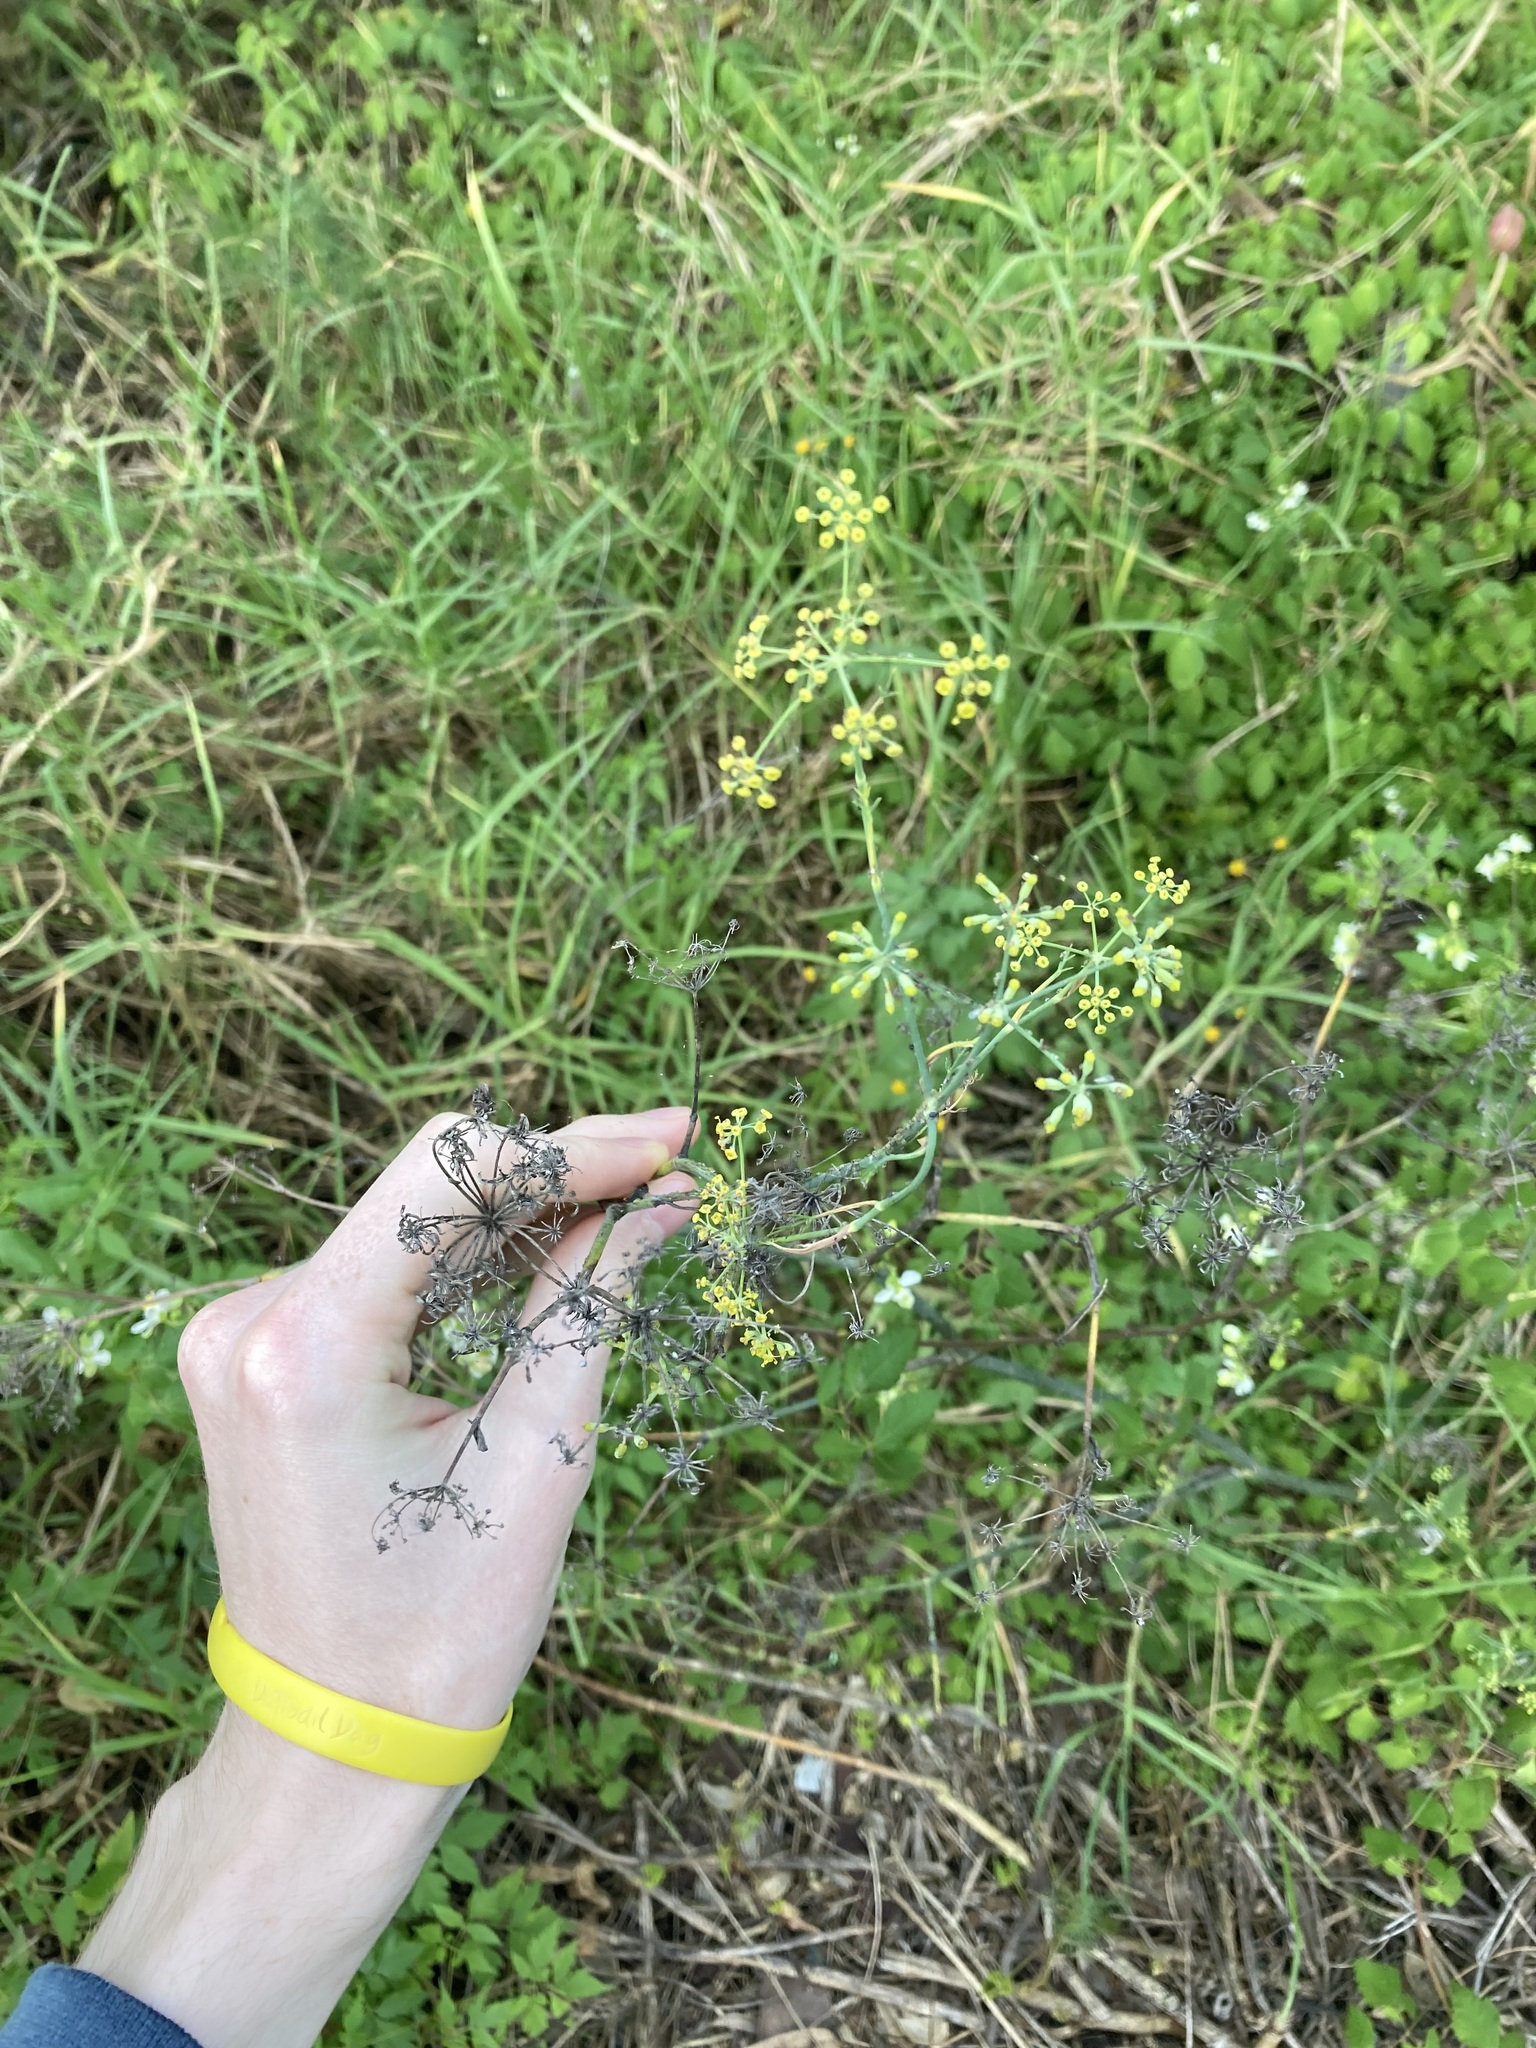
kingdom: Plantae
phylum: Tracheophyta
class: Magnoliopsida
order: Apiales
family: Apiaceae
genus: Foeniculum
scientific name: Foeniculum vulgare
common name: Fennel
